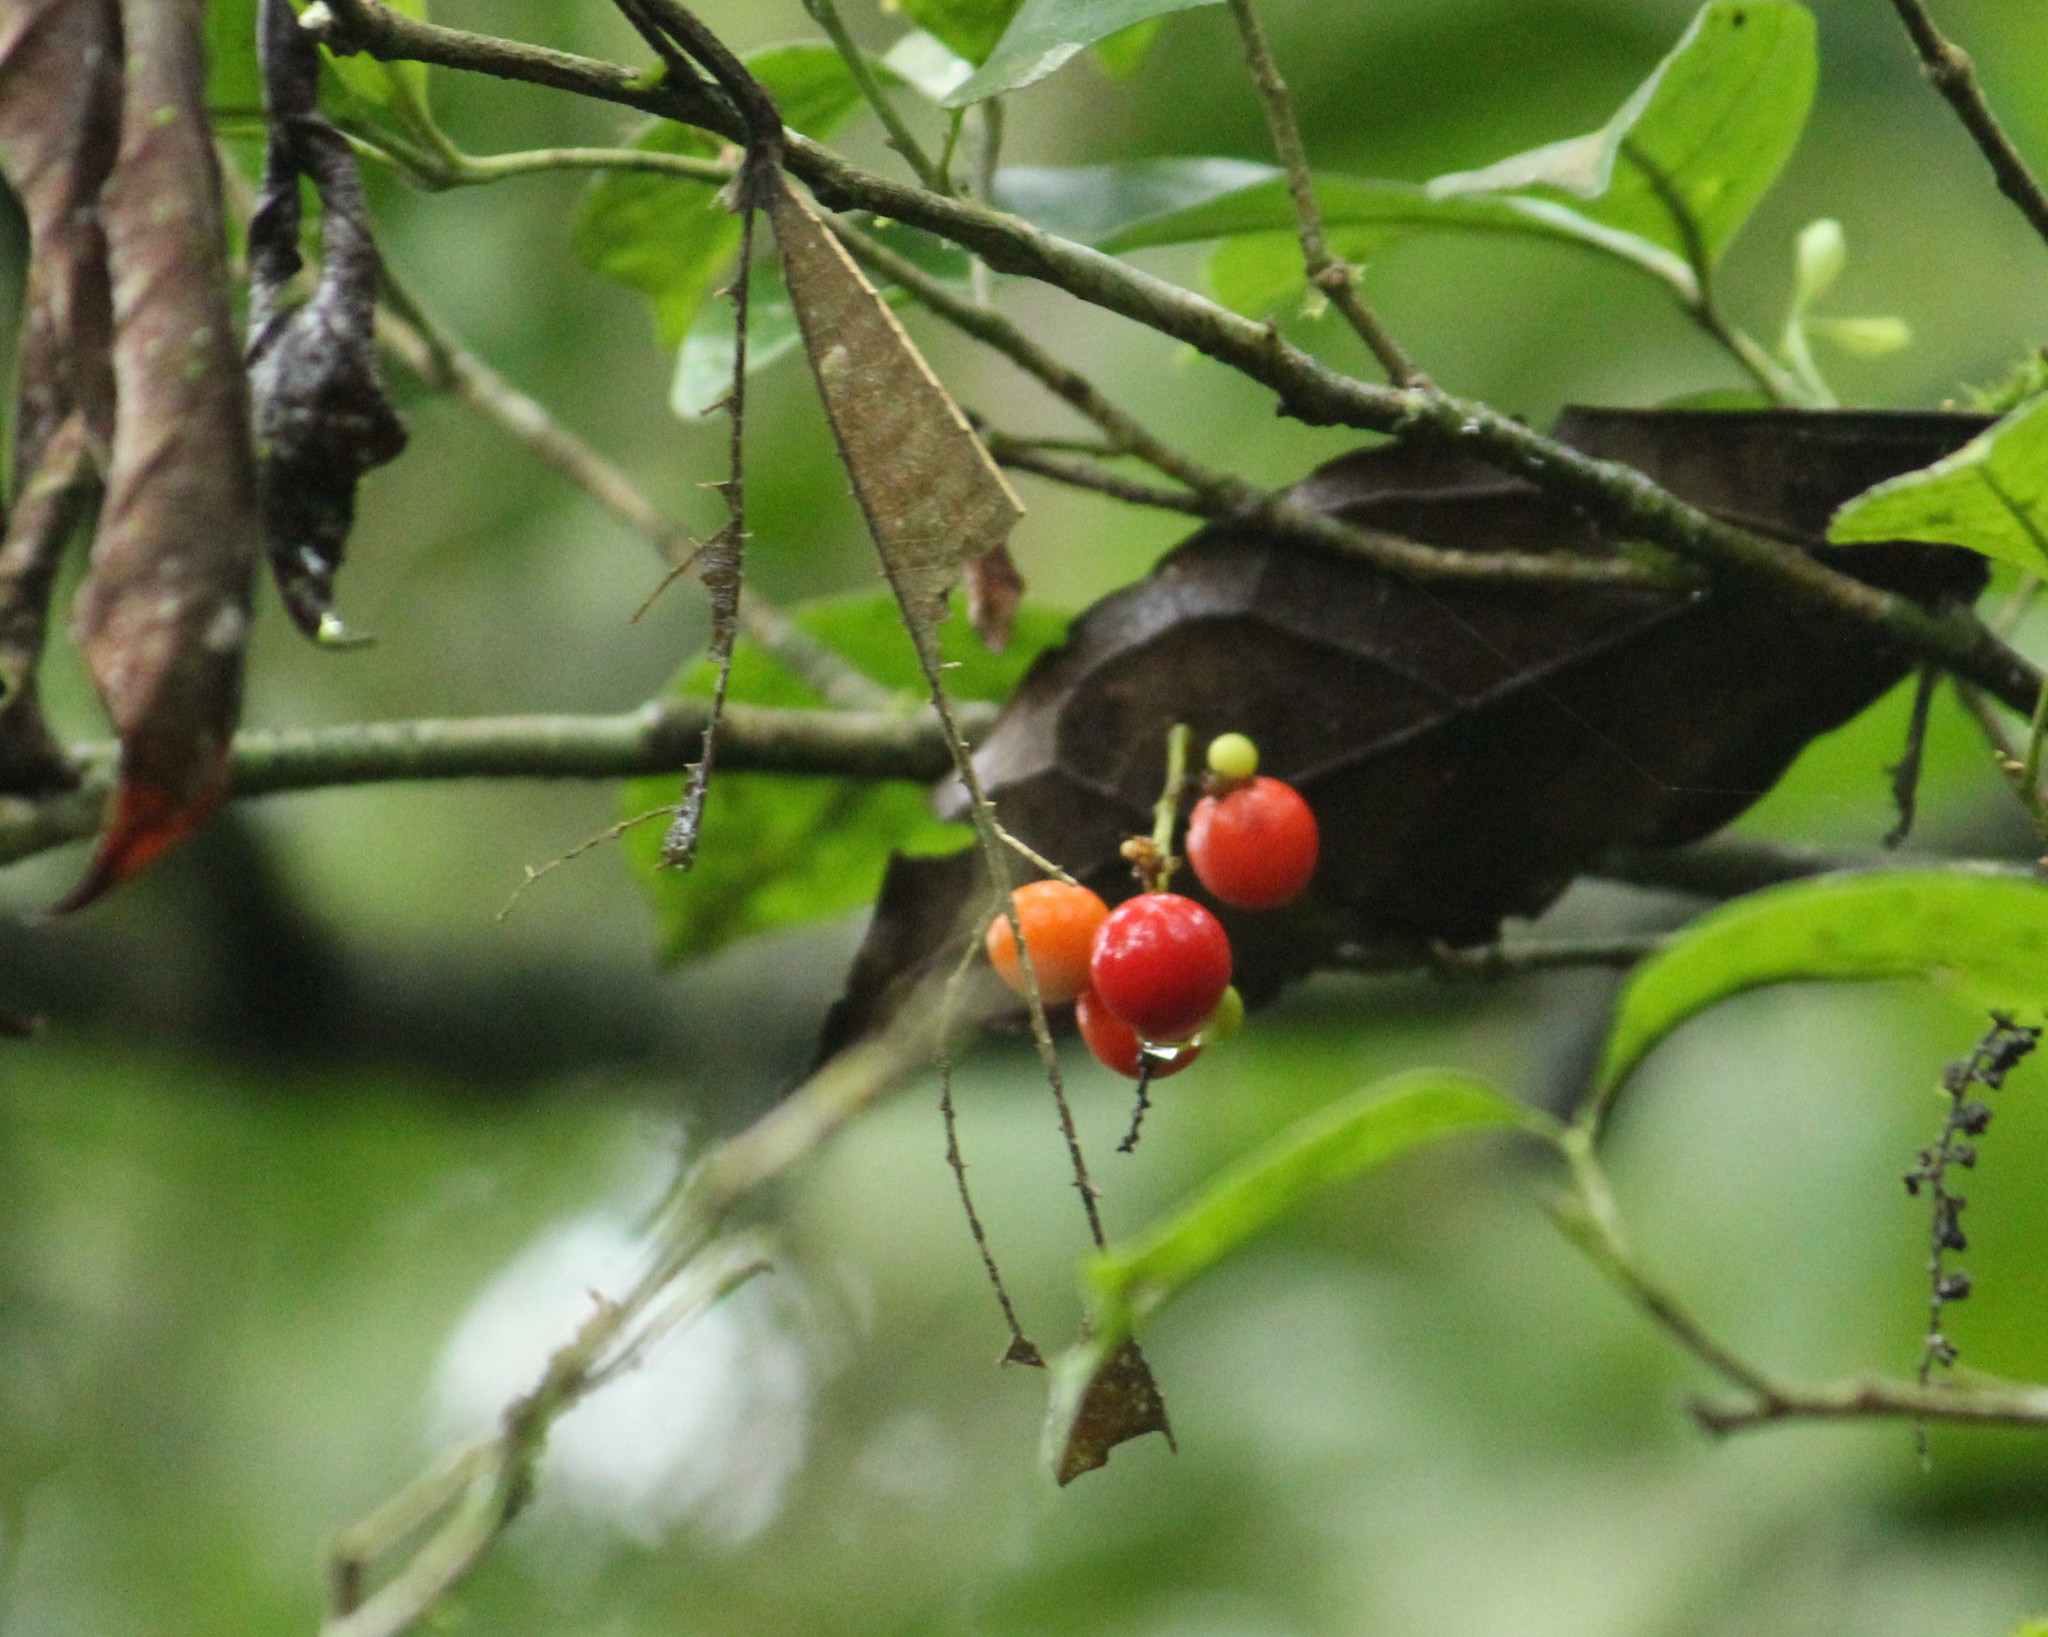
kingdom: Plantae
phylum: Tracheophyta
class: Magnoliopsida
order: Sapindales
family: Sapindaceae
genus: Allophylus
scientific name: Allophylus edulis
